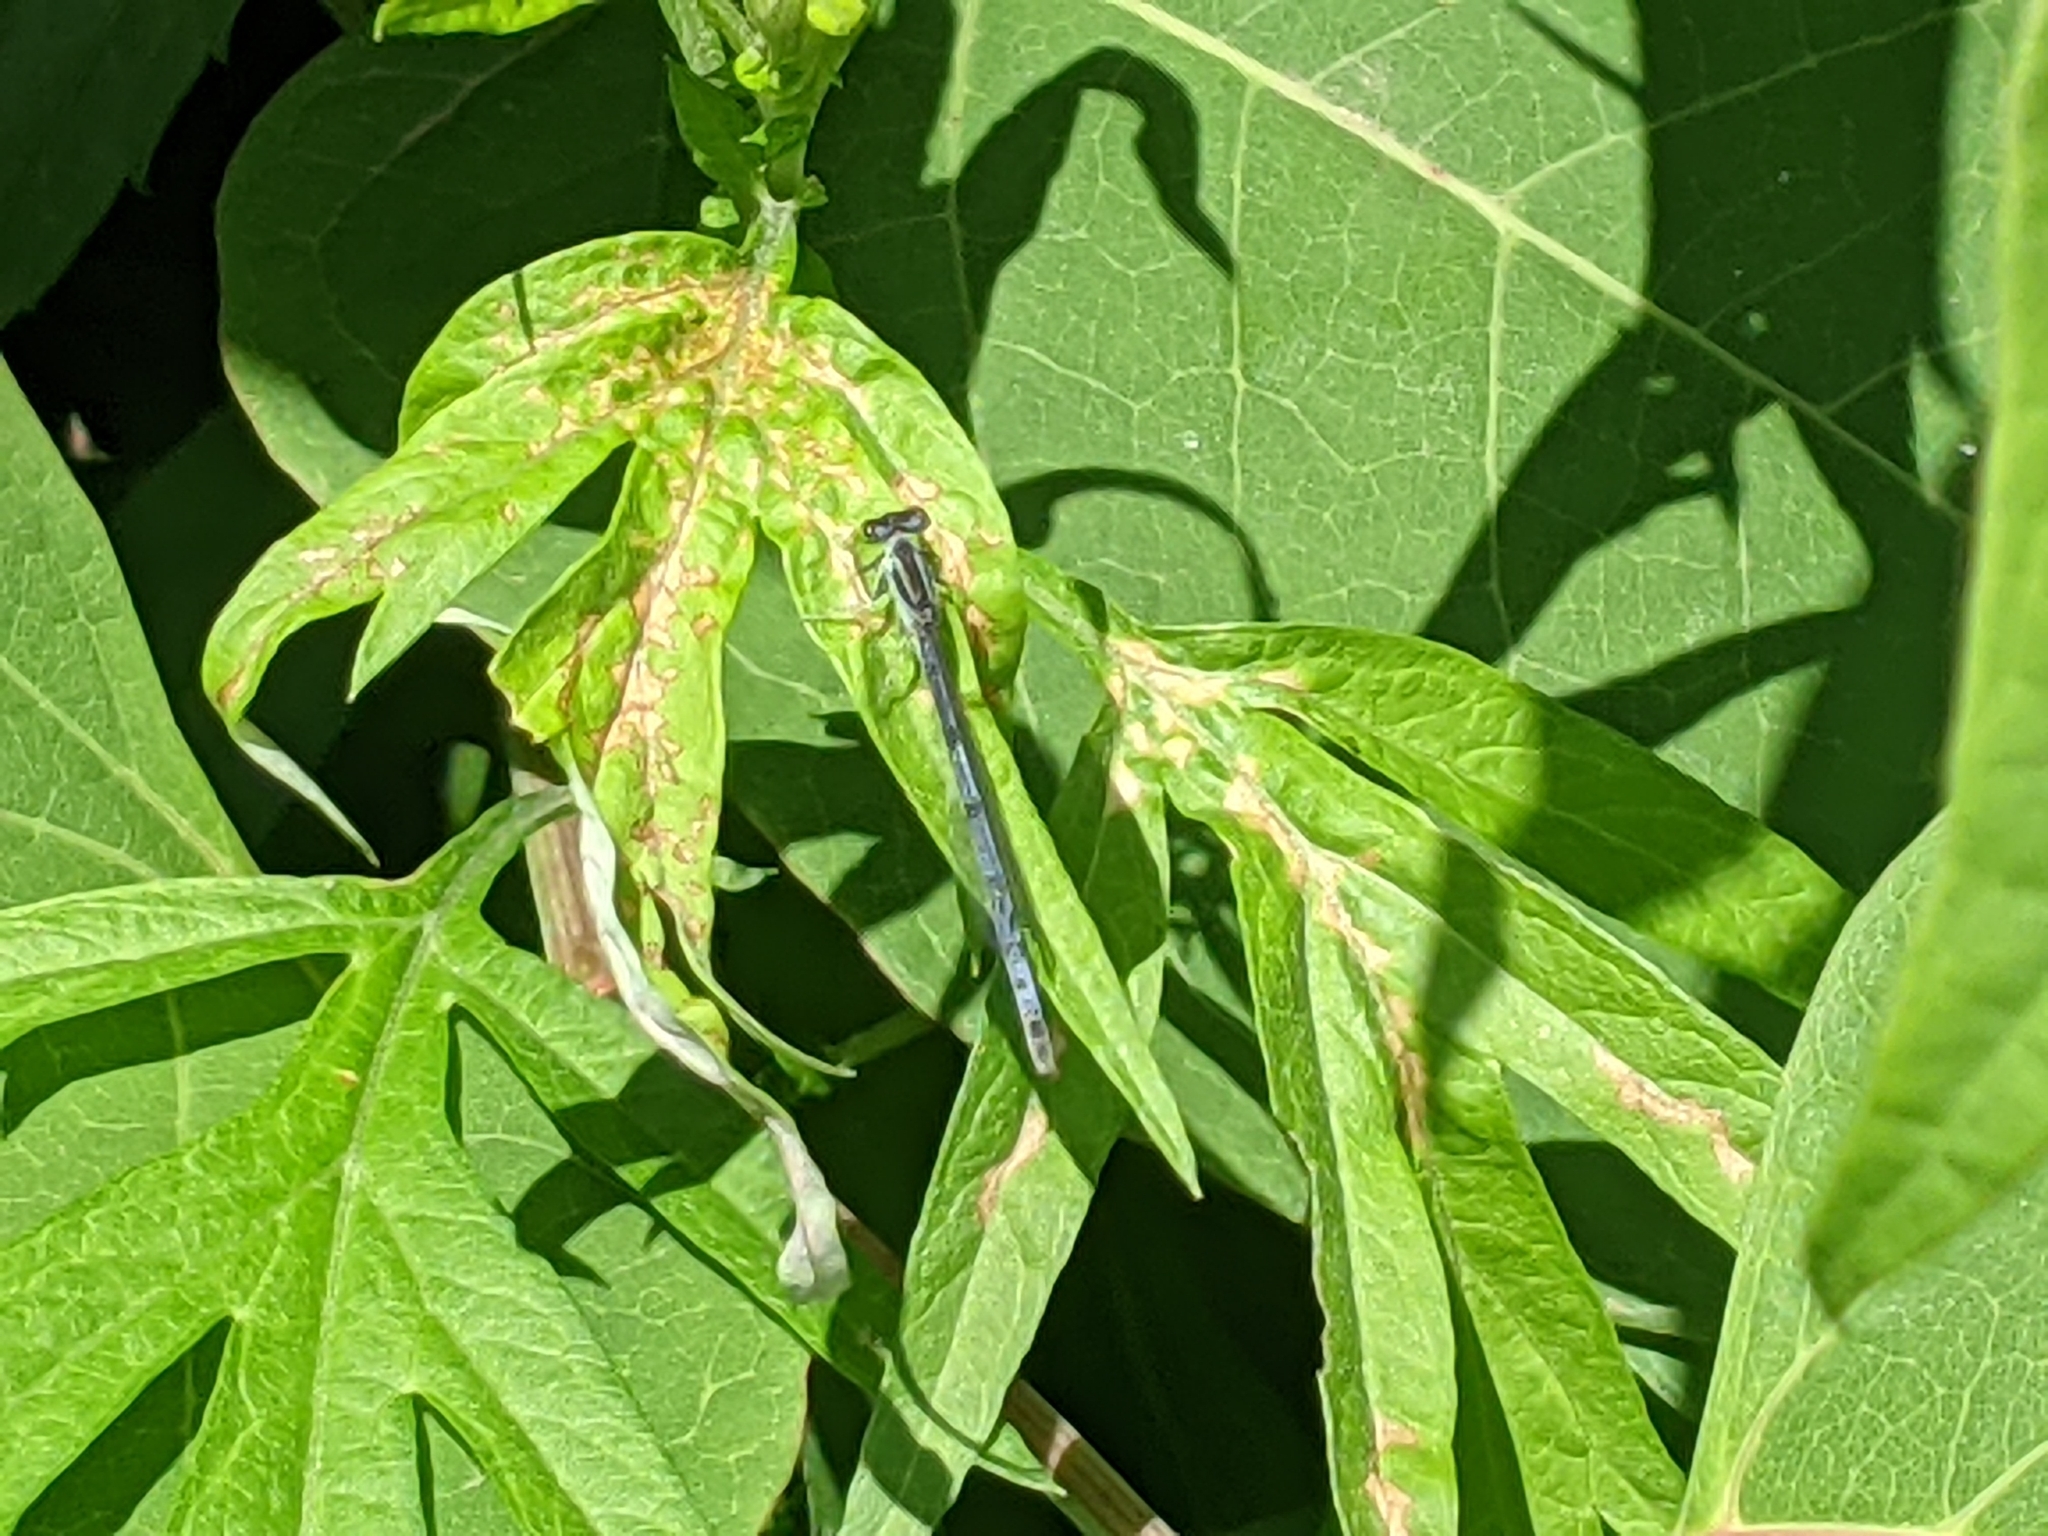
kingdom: Animalia
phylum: Arthropoda
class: Insecta
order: Odonata
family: Coenagrionidae
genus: Ischnura
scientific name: Ischnura verticalis
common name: Eastern forktail
